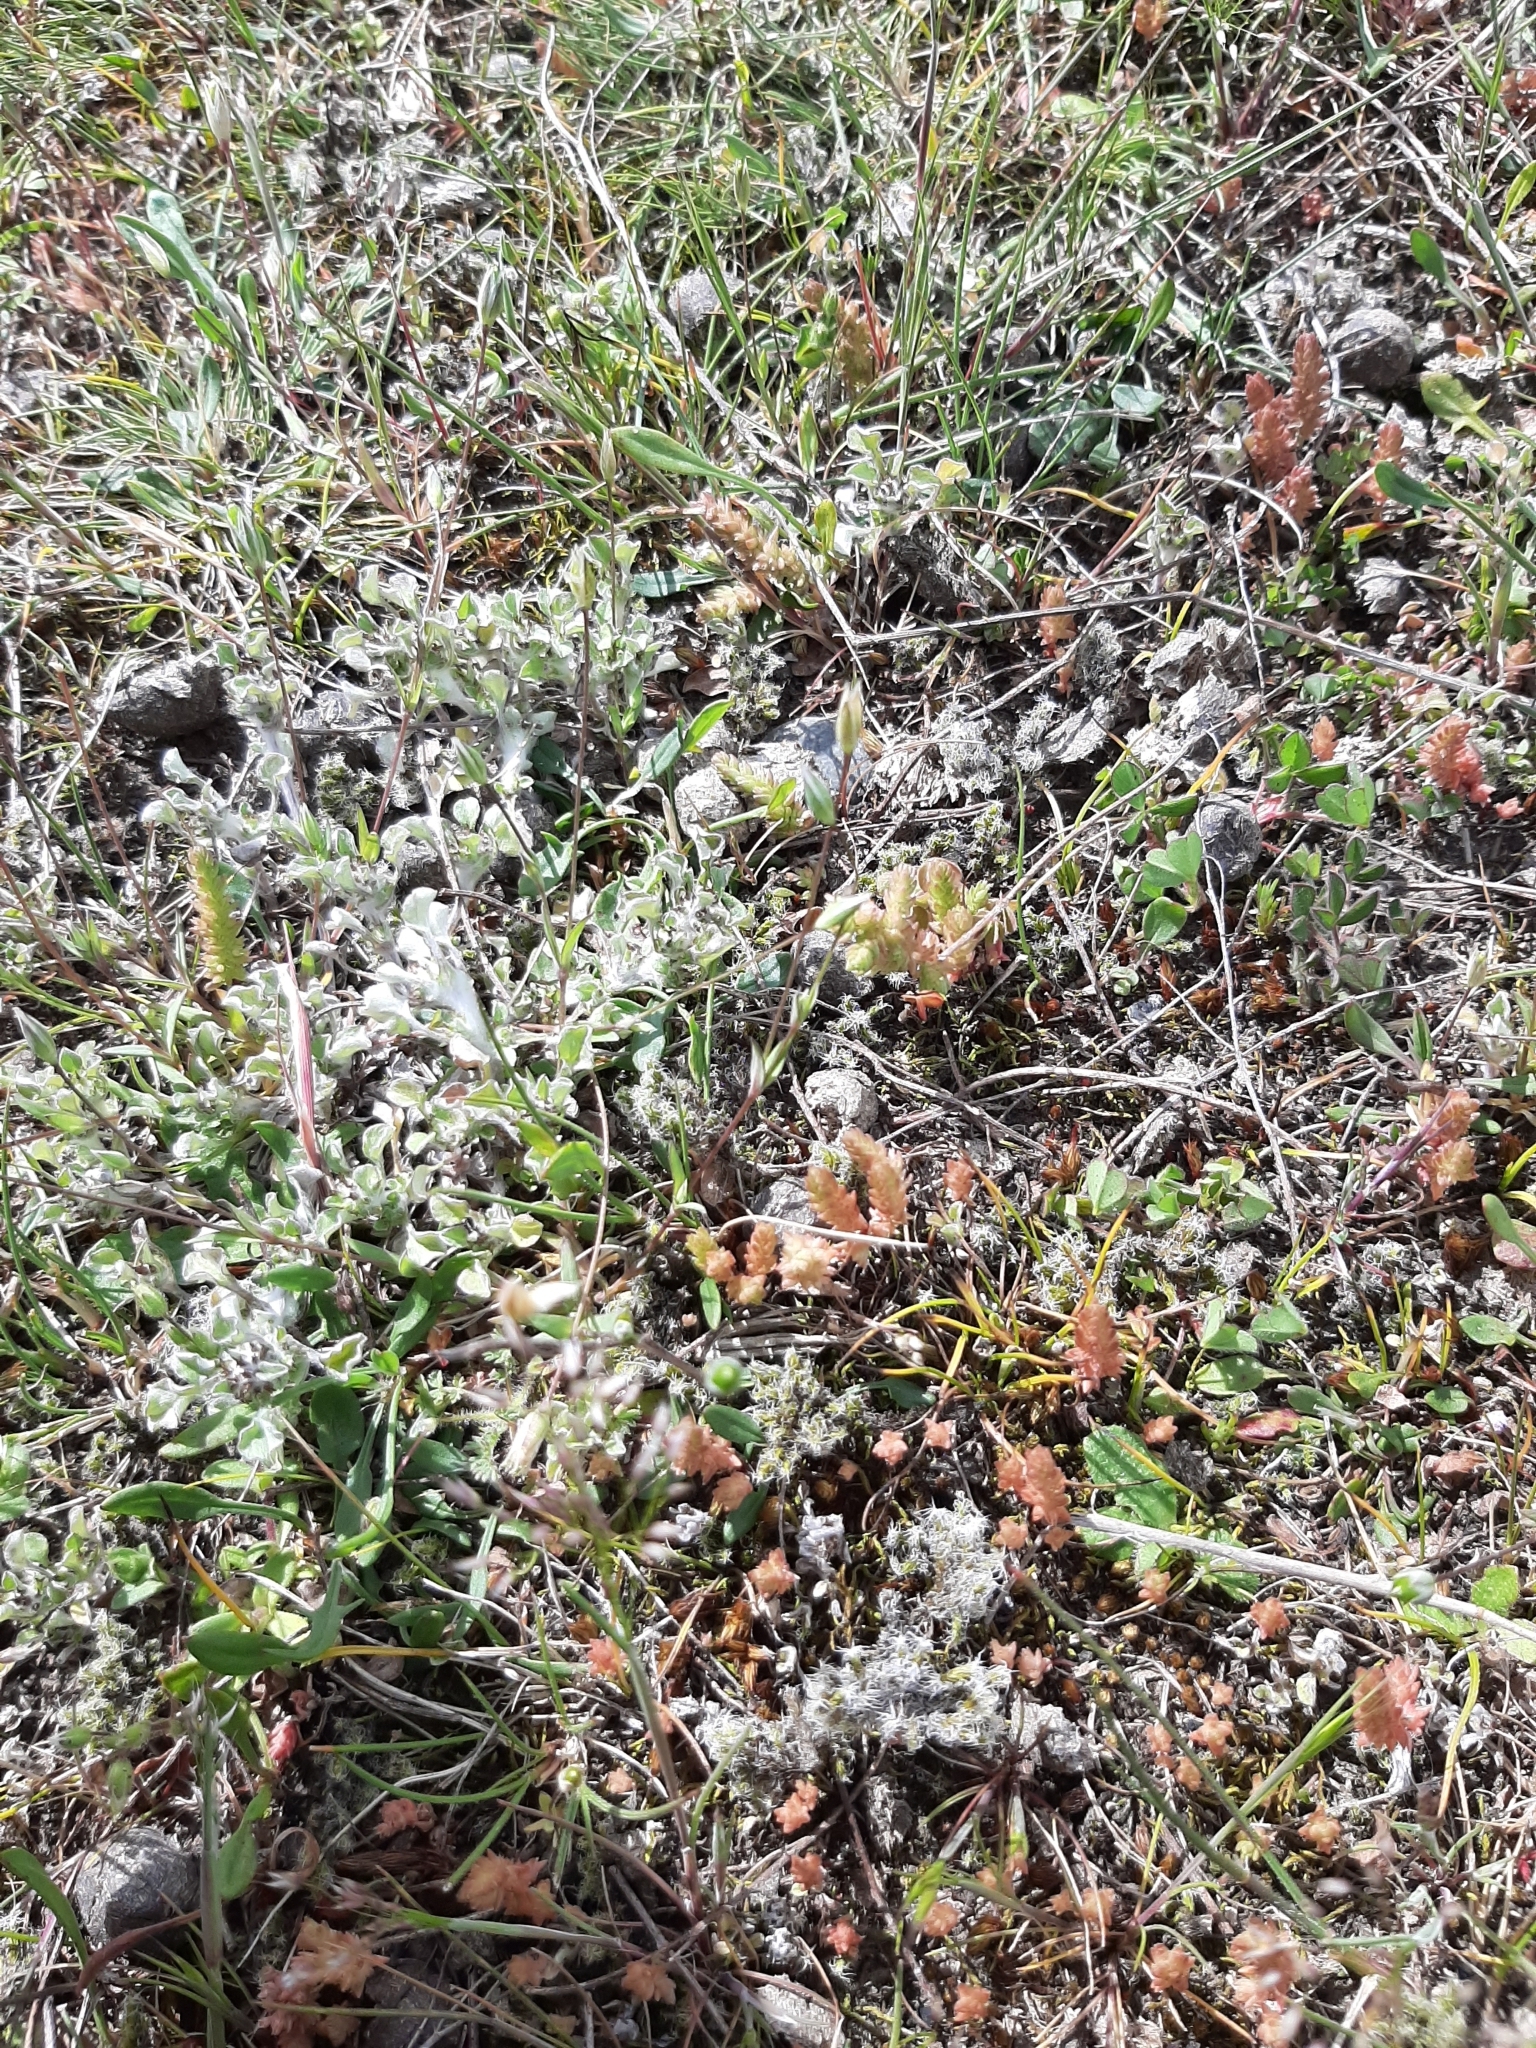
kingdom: Plantae
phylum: Tracheophyta
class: Magnoliopsida
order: Asterales
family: Asteraceae
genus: Stuartina
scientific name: Stuartina muelleri
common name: Spoon-leaved cudweed
